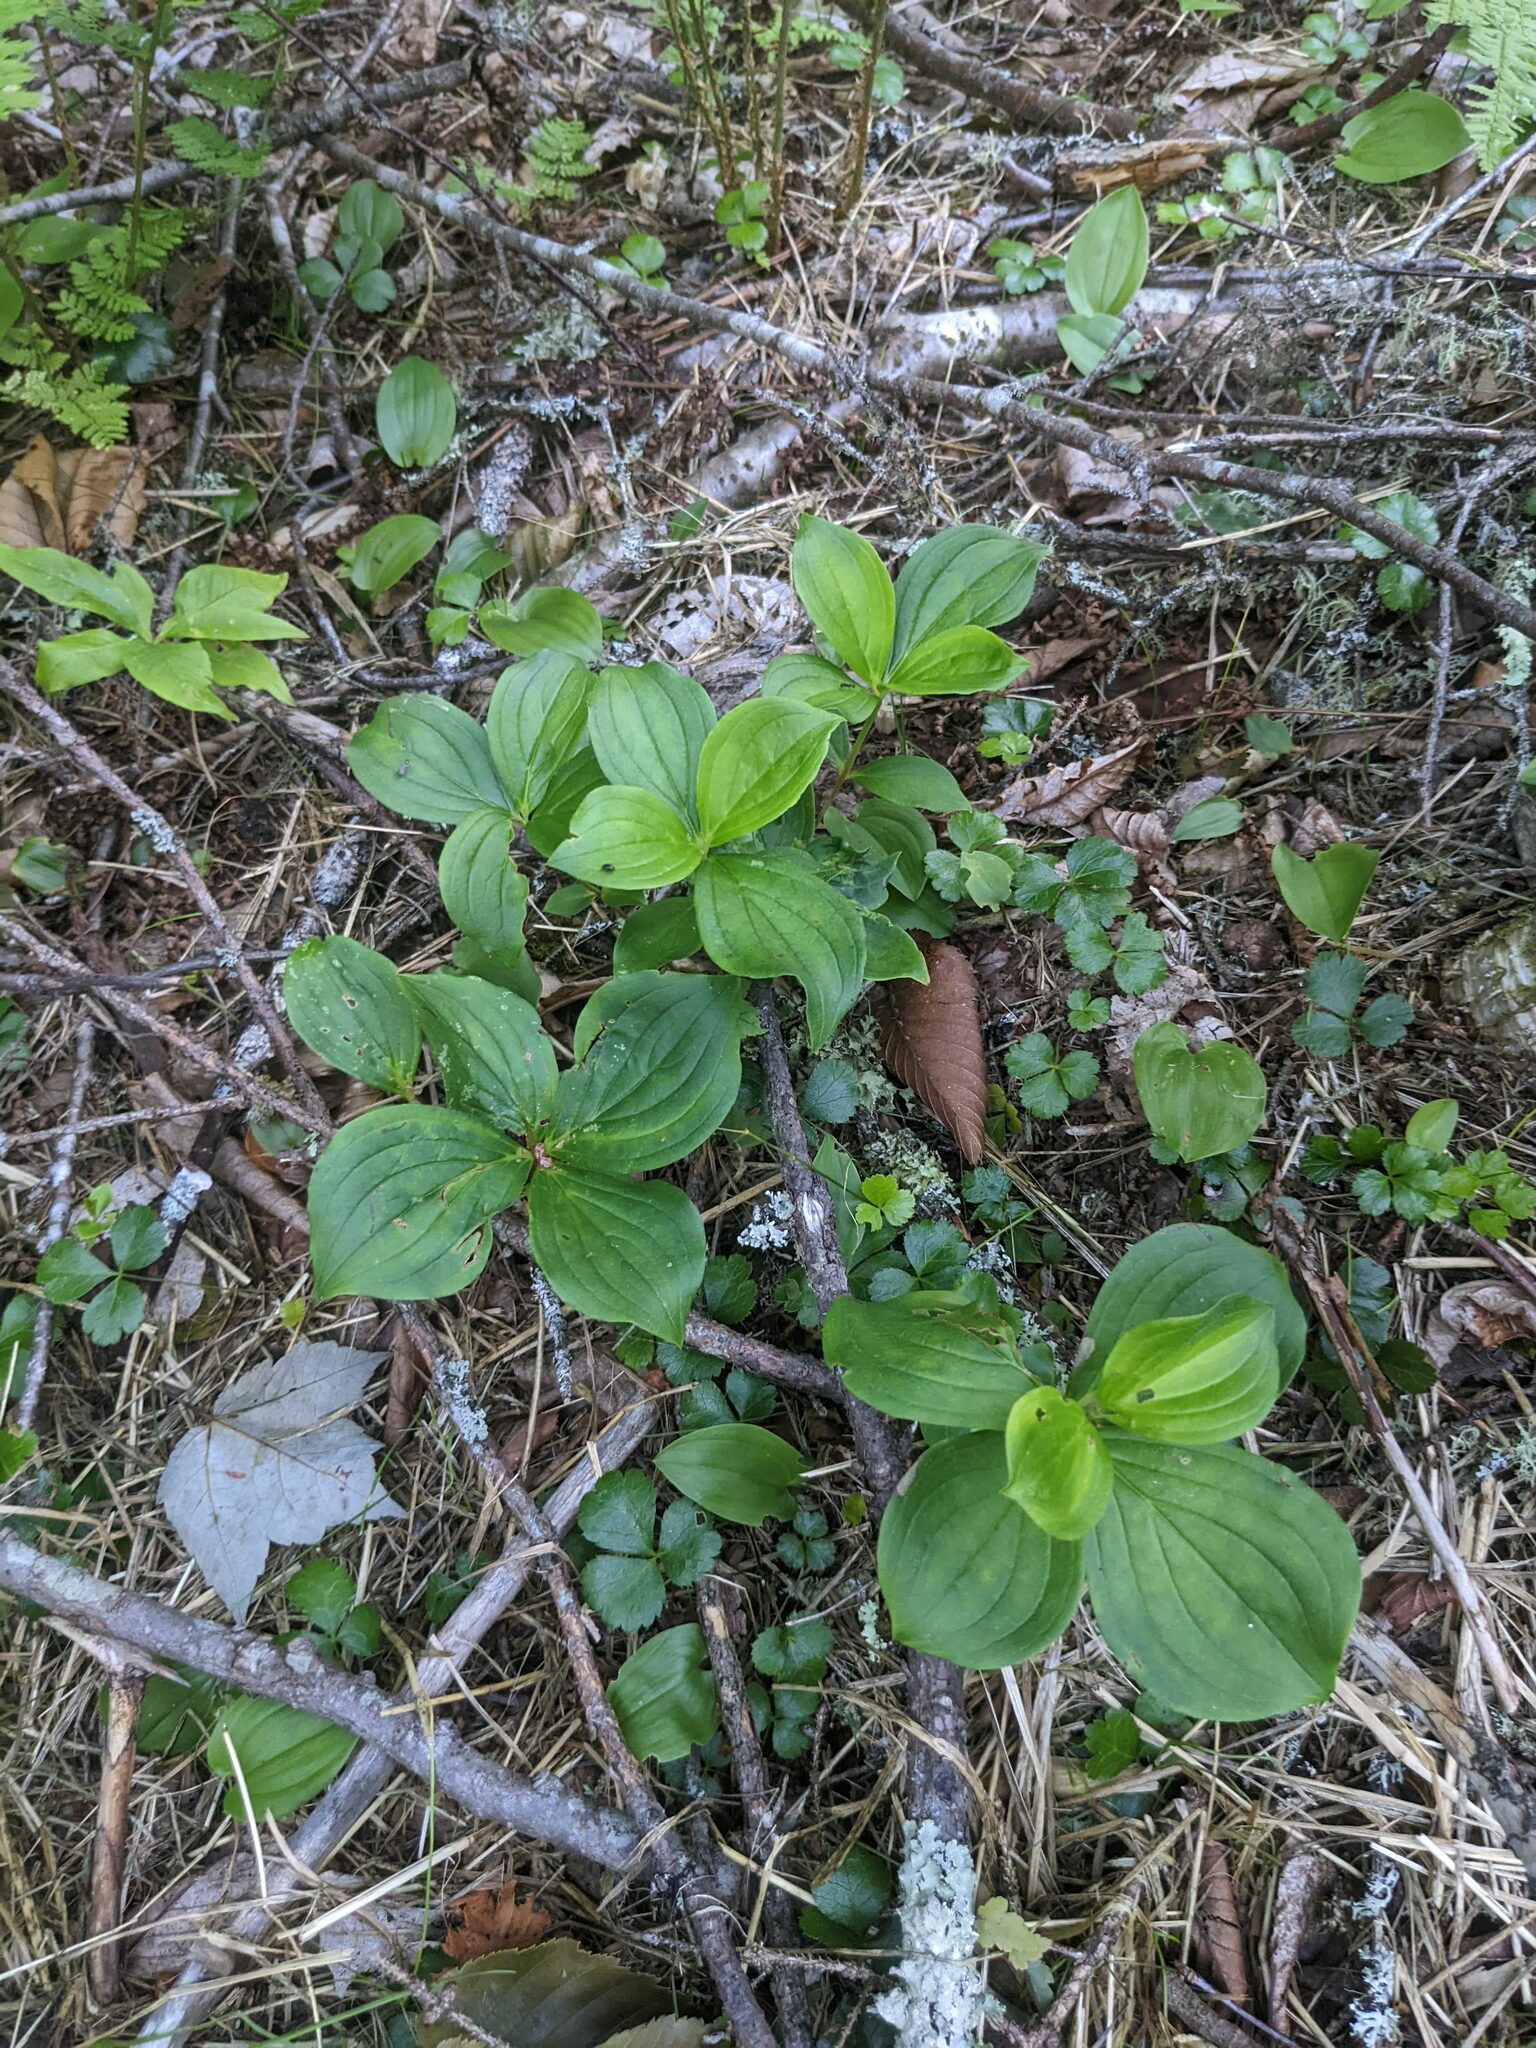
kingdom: Plantae
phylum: Tracheophyta
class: Magnoliopsida
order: Cornales
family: Cornaceae
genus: Cornus
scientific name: Cornus canadensis
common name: Creeping dogwood
